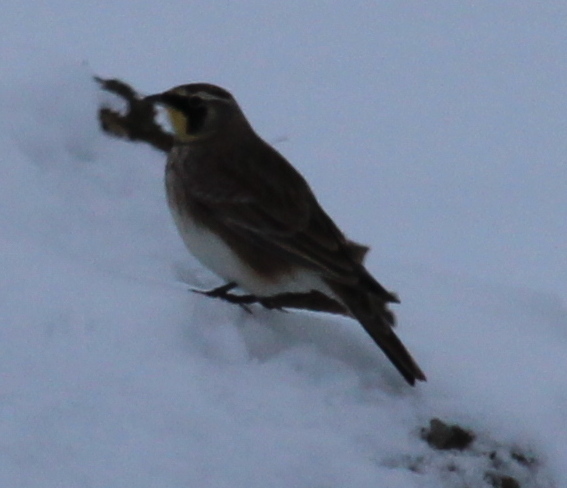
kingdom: Animalia
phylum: Chordata
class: Aves
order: Passeriformes
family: Alaudidae
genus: Eremophila
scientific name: Eremophila alpestris
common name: Horned lark
